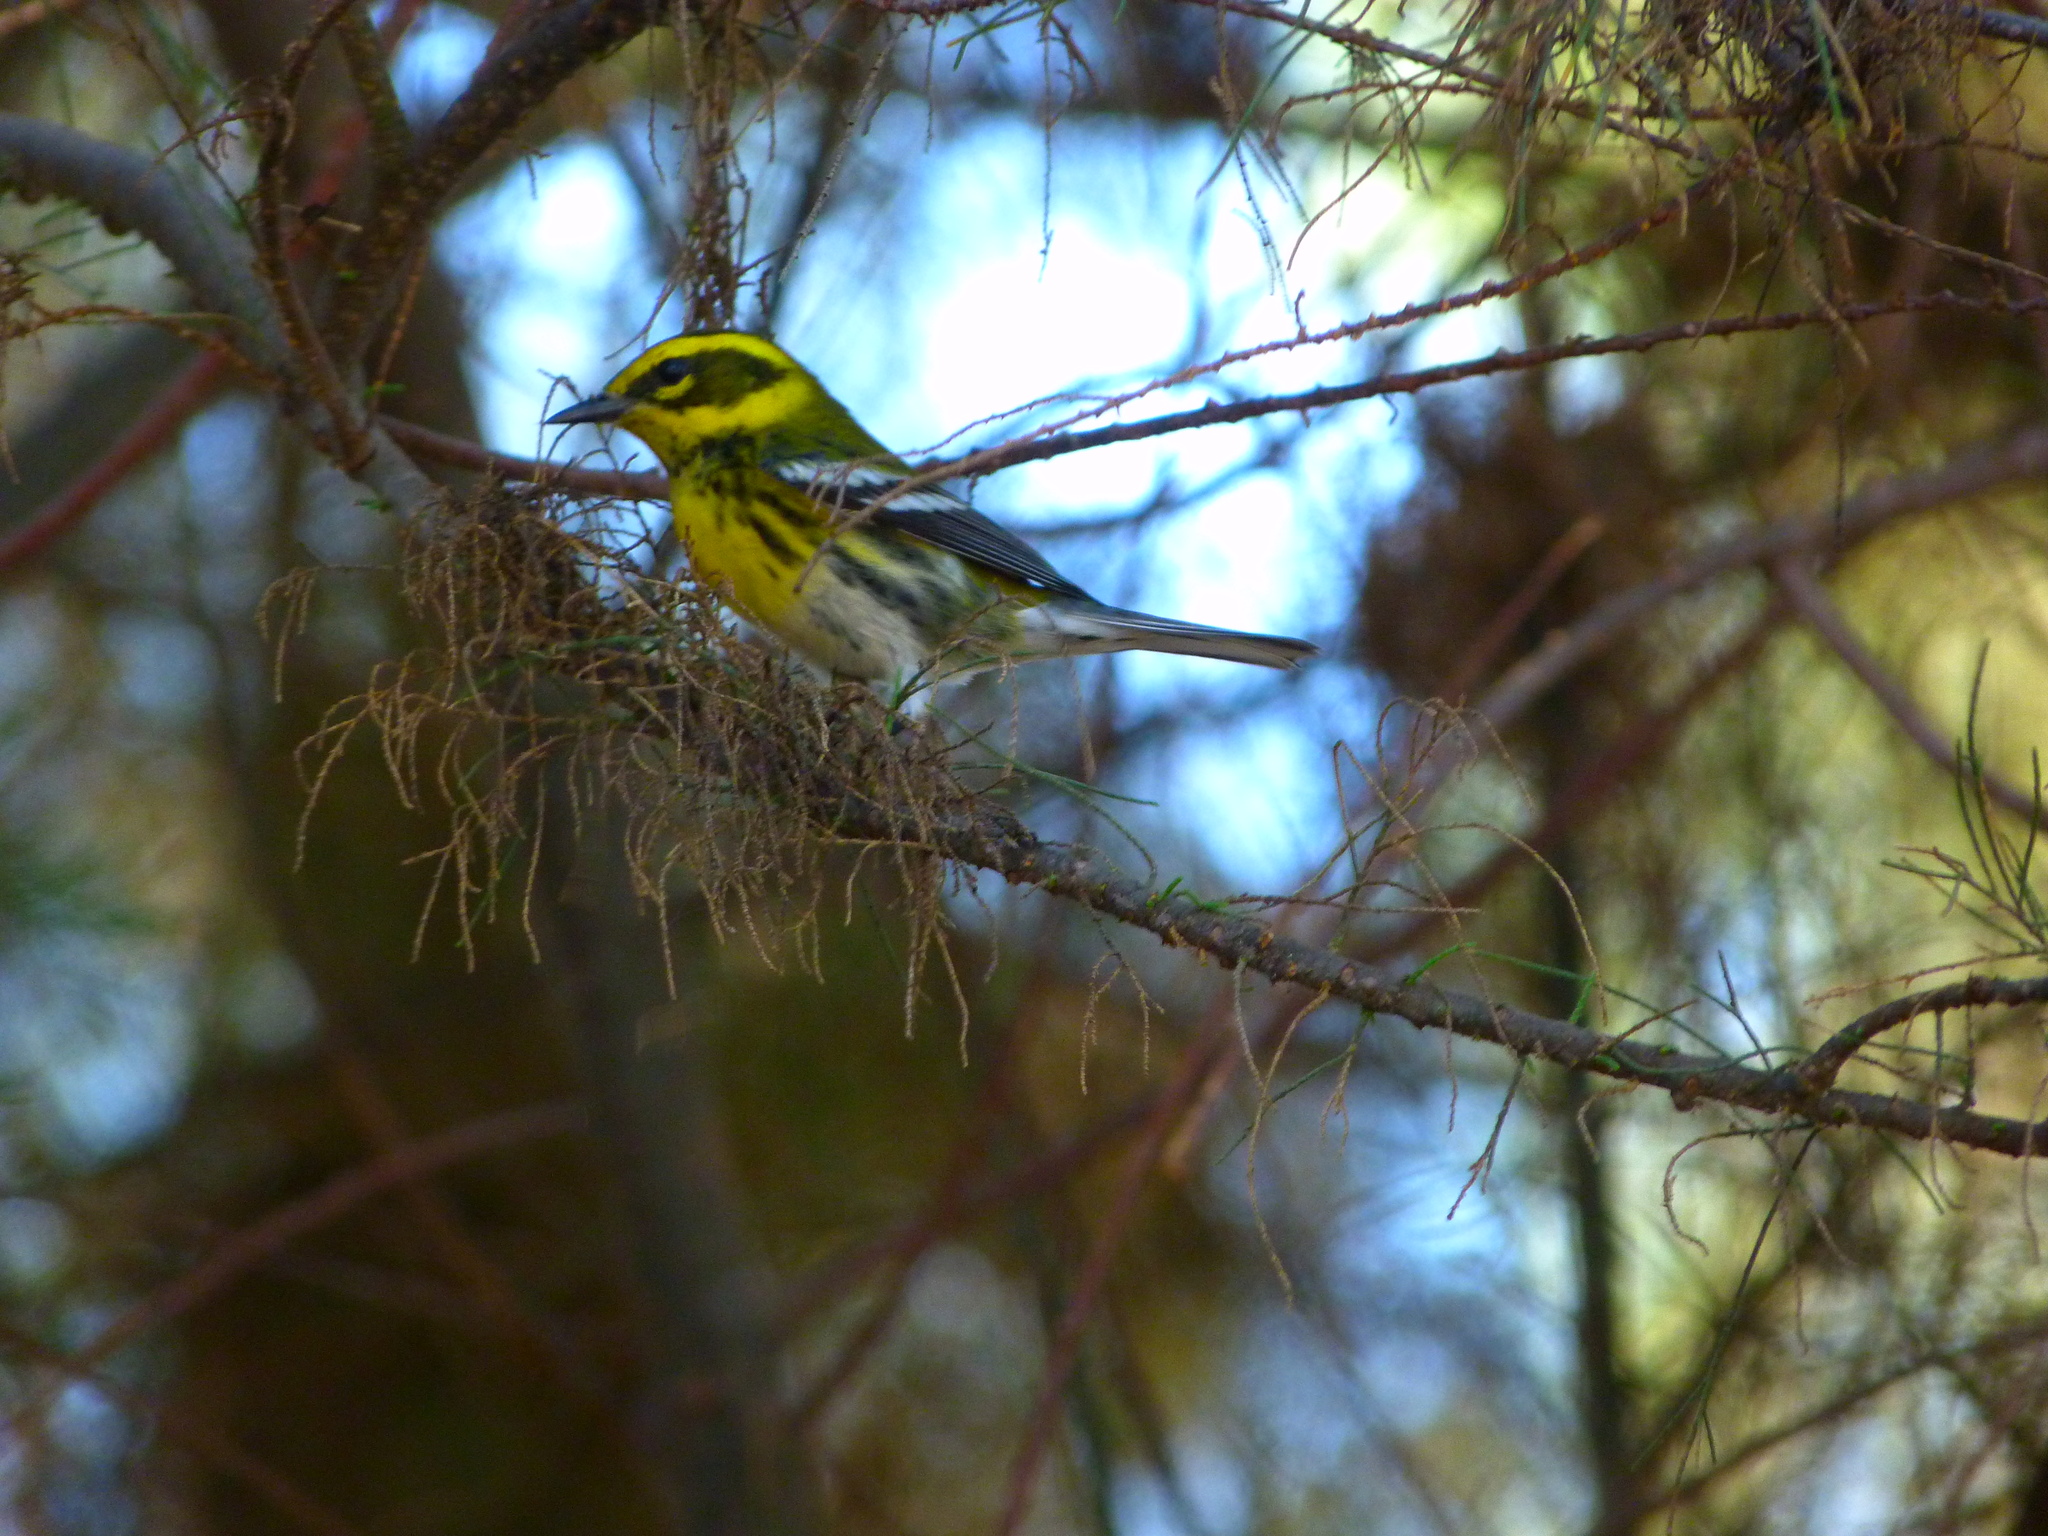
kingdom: Animalia
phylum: Chordata
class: Aves
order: Passeriformes
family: Parulidae
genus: Setophaga
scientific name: Setophaga townsendi
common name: Townsend's warbler
